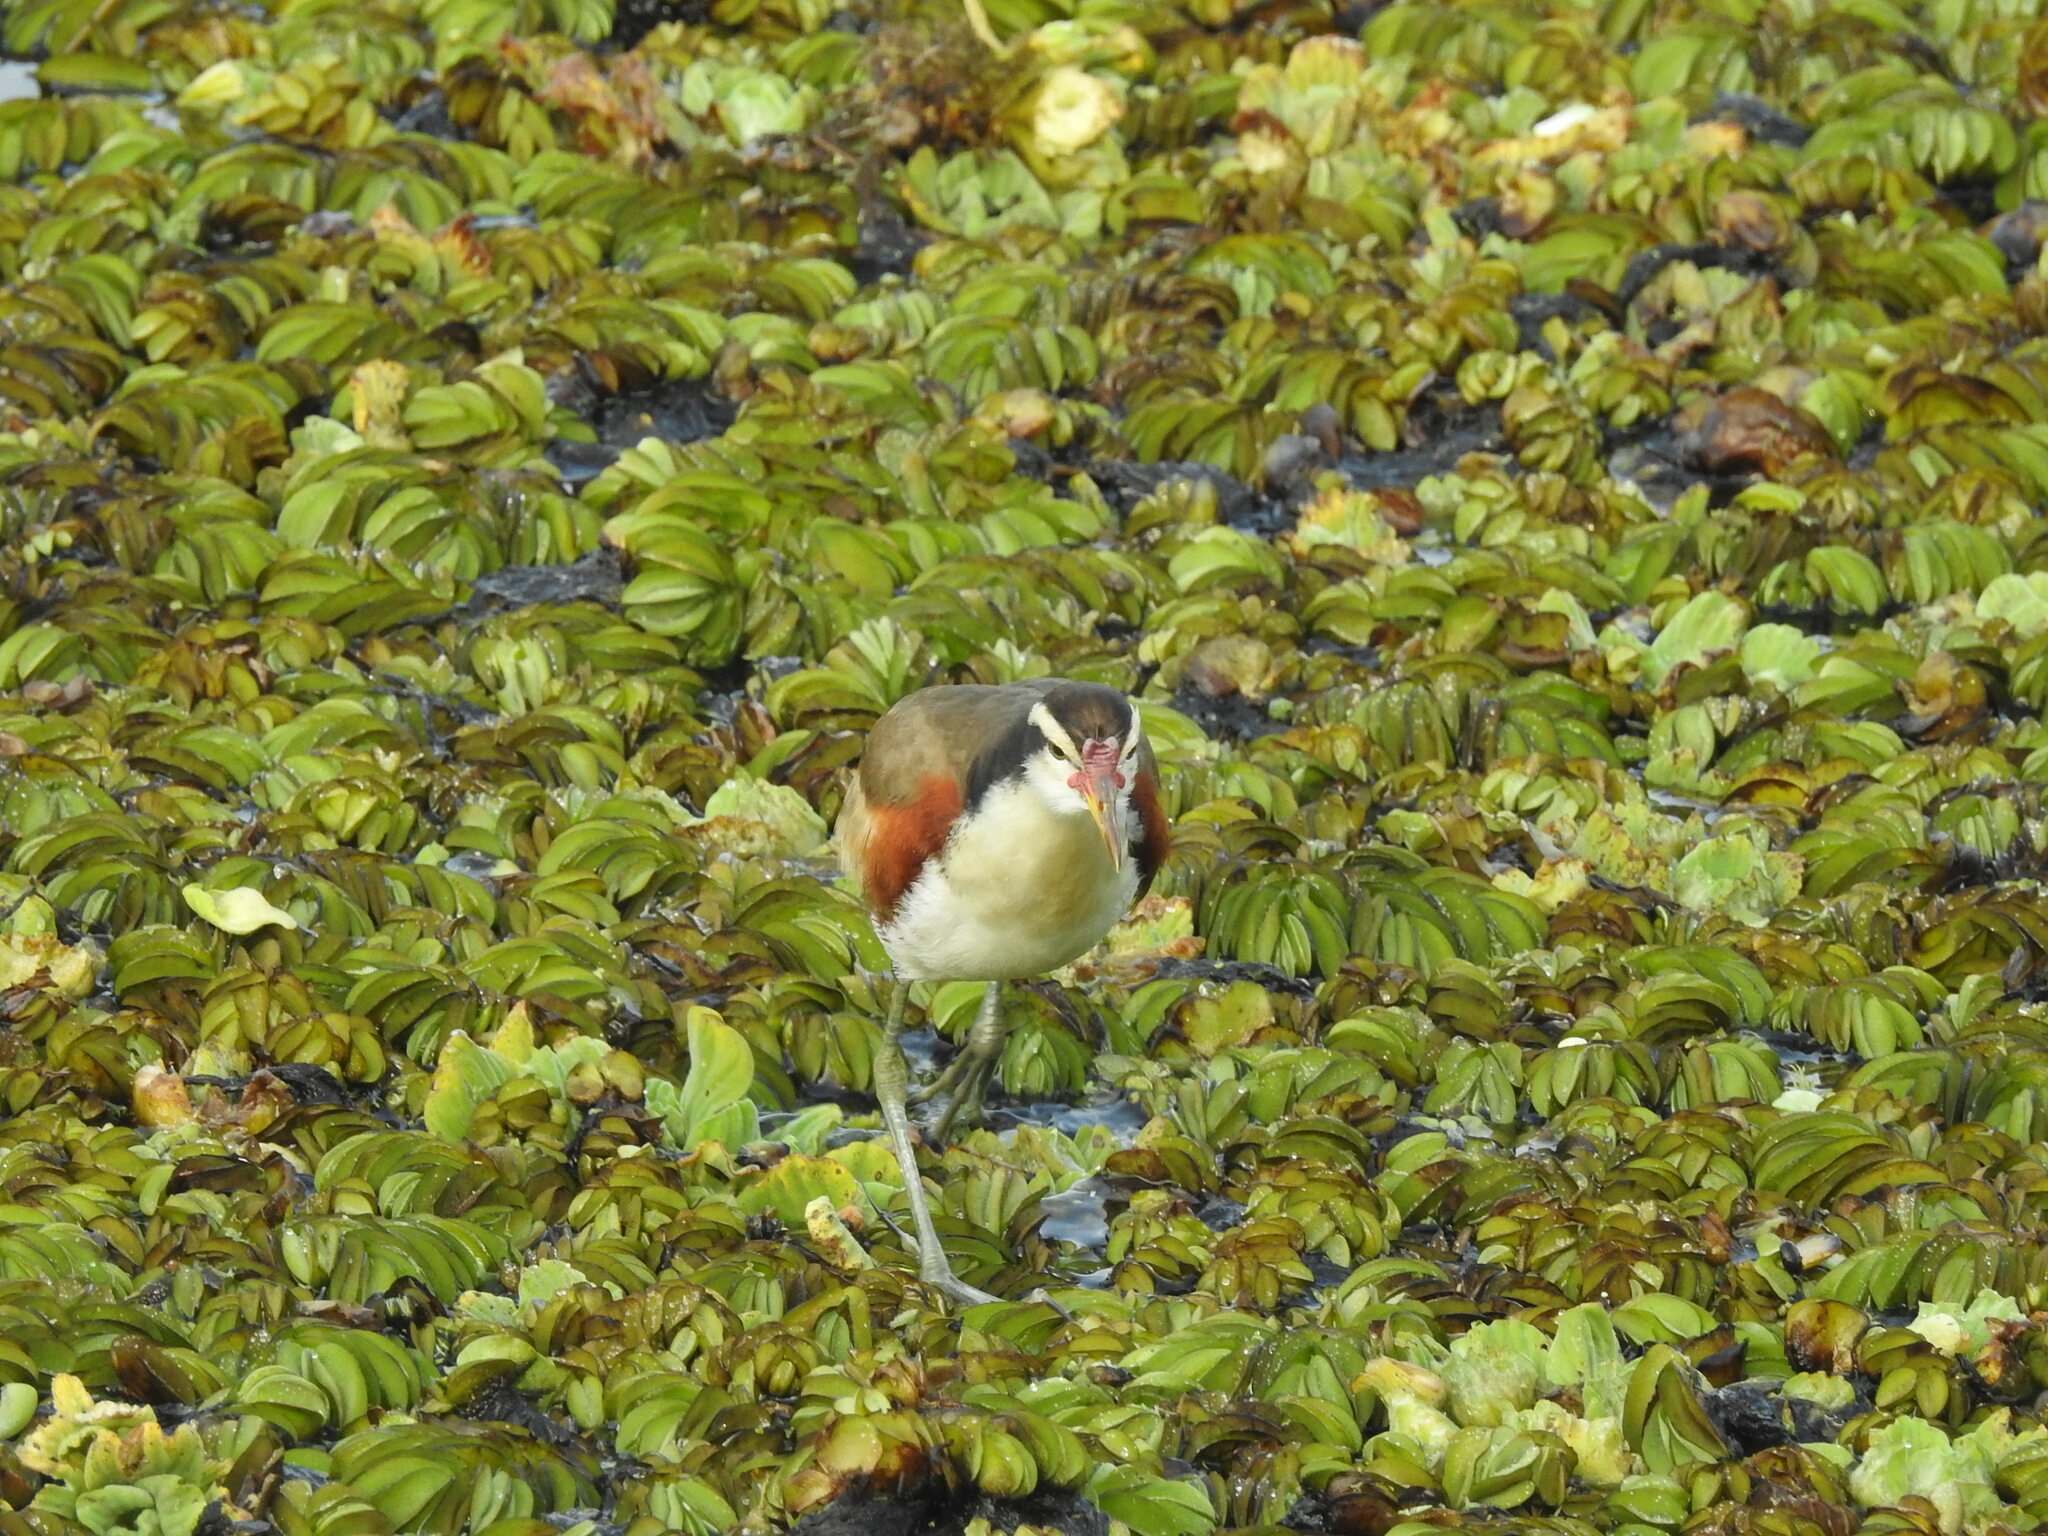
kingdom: Animalia
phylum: Chordata
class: Aves
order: Charadriiformes
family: Jacanidae
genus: Jacana
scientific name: Jacana jacana
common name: Wattled jacana
